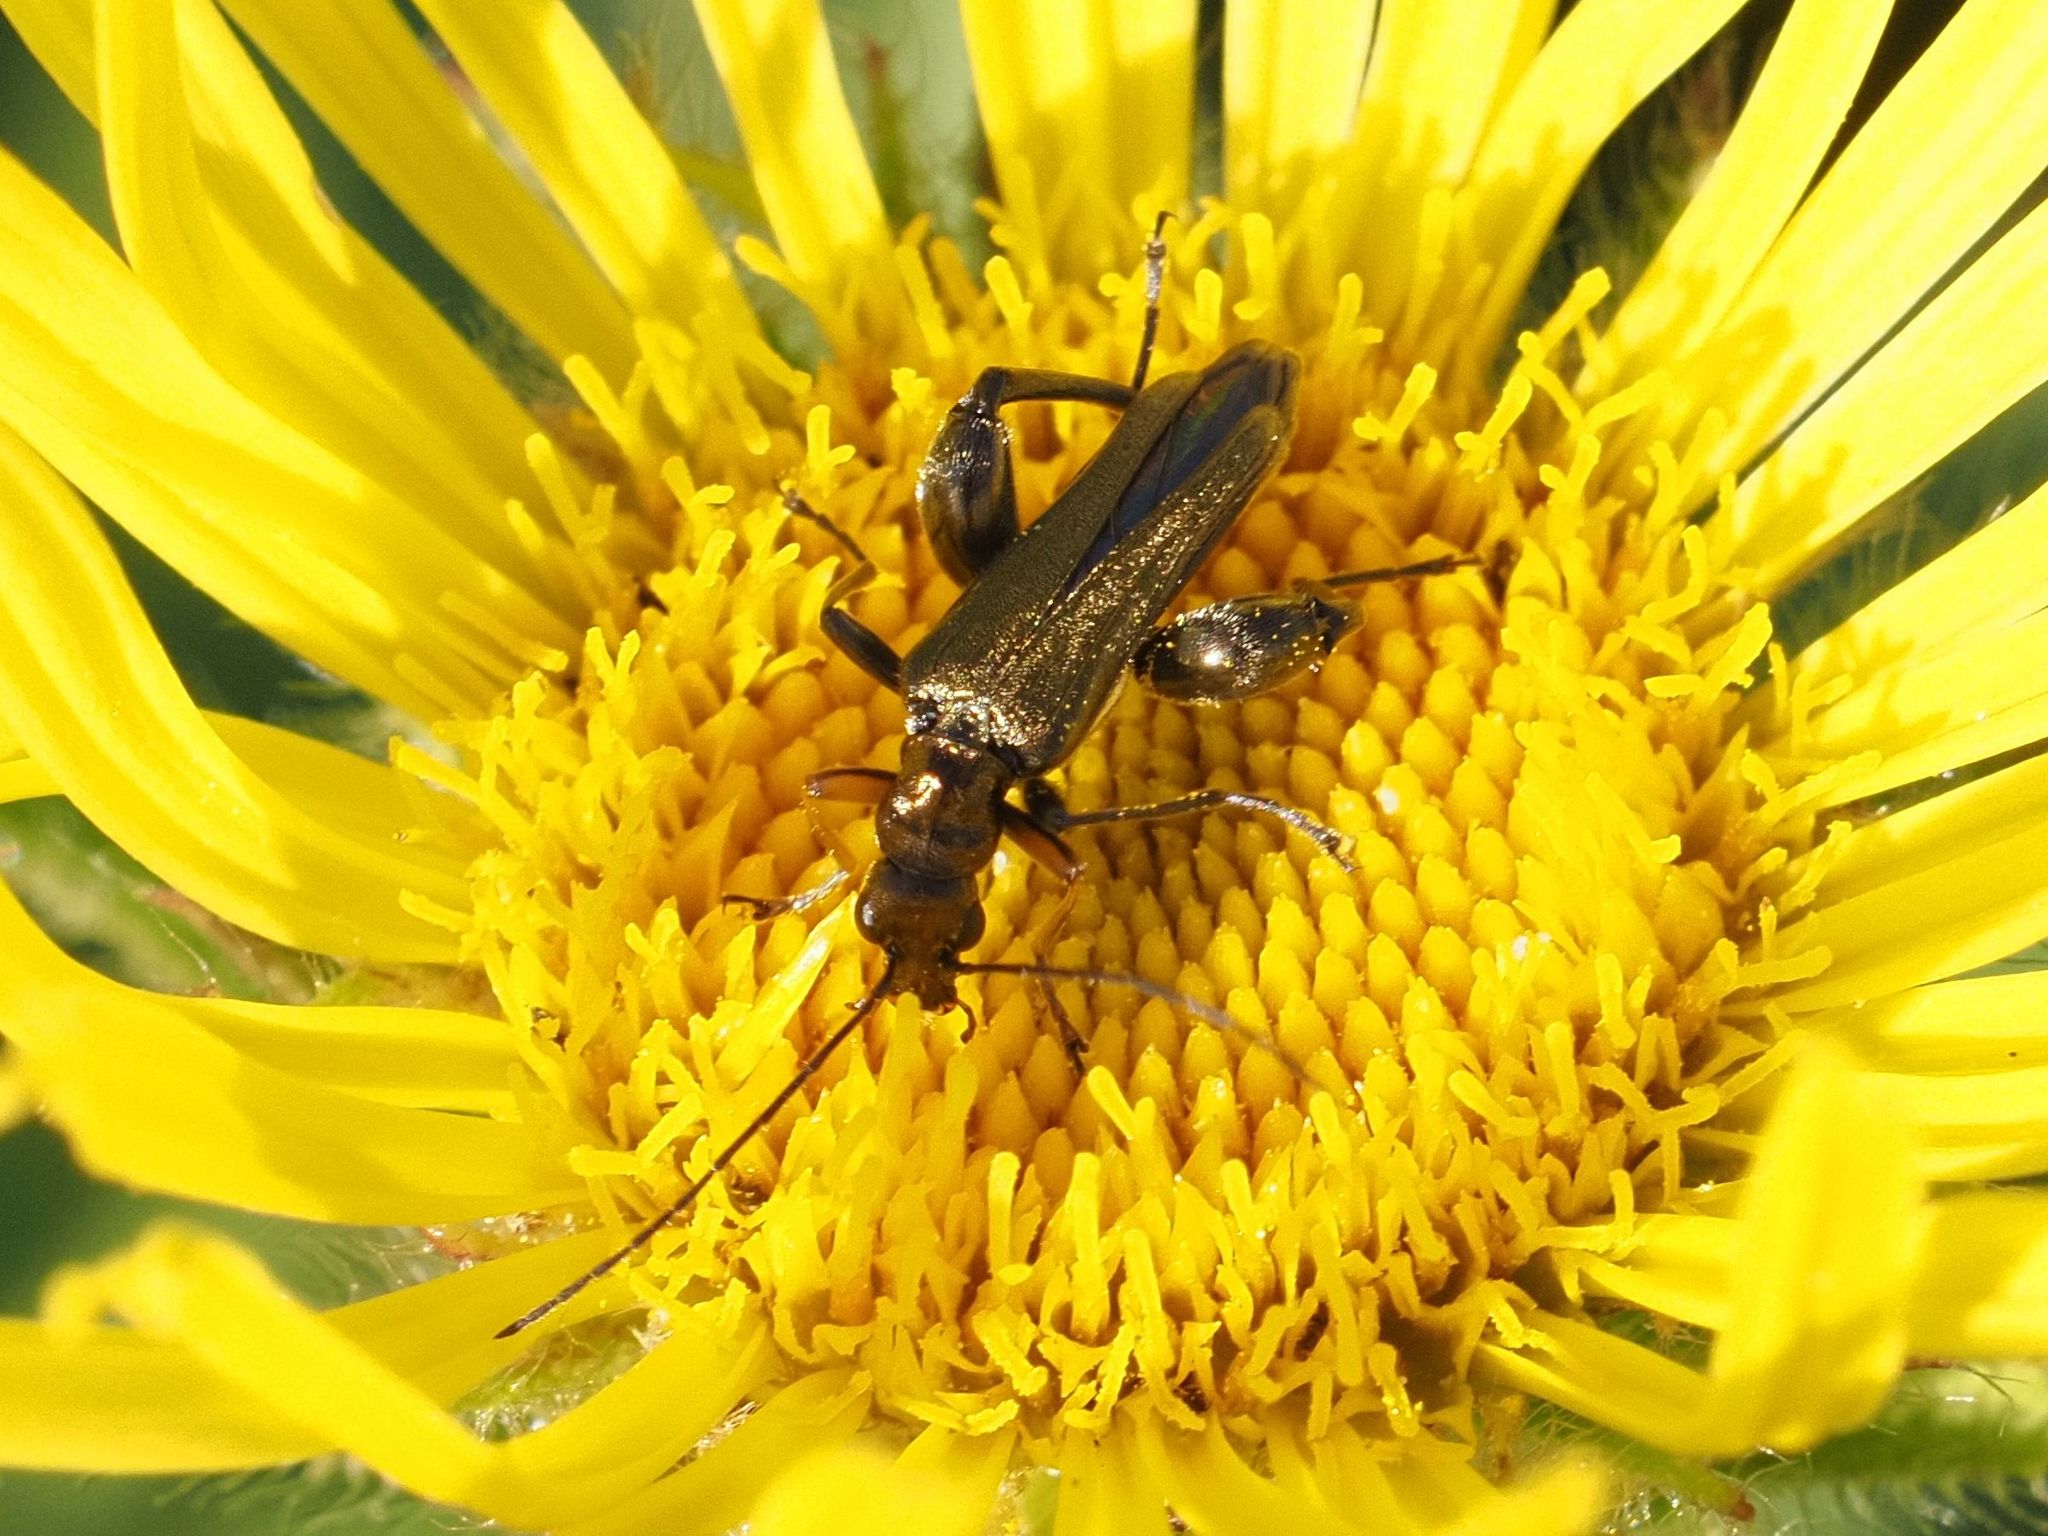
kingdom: Animalia
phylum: Arthropoda
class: Insecta
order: Coleoptera
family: Oedemeridae
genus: Oedemera
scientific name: Oedemera flavipes
